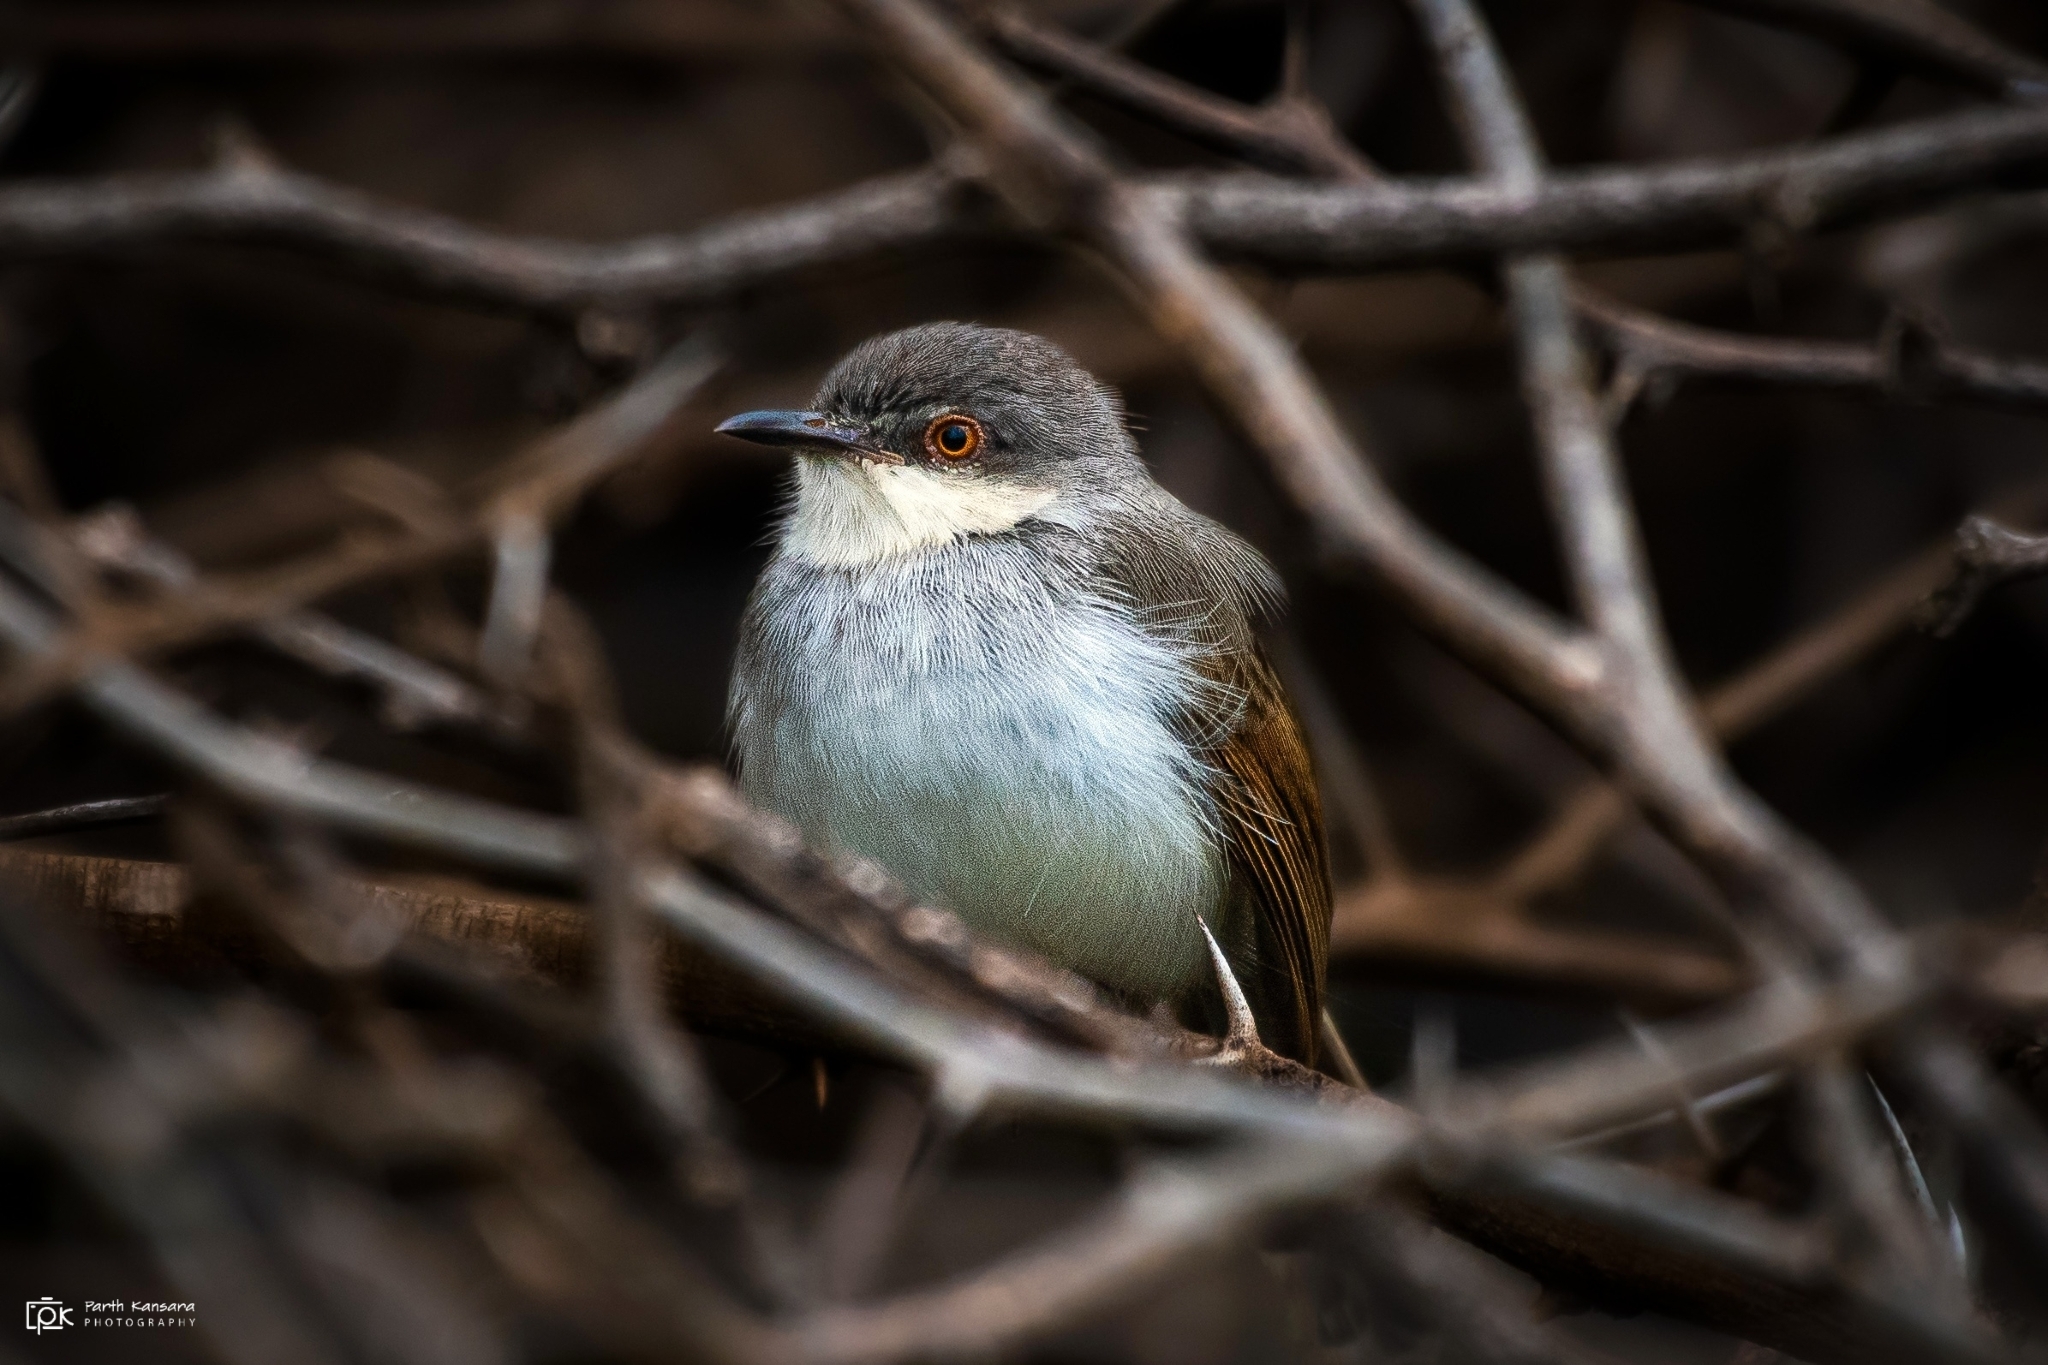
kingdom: Animalia
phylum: Chordata
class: Aves
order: Passeriformes
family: Cisticolidae
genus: Prinia
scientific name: Prinia hodgsonii
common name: Grey-breasted prinia
